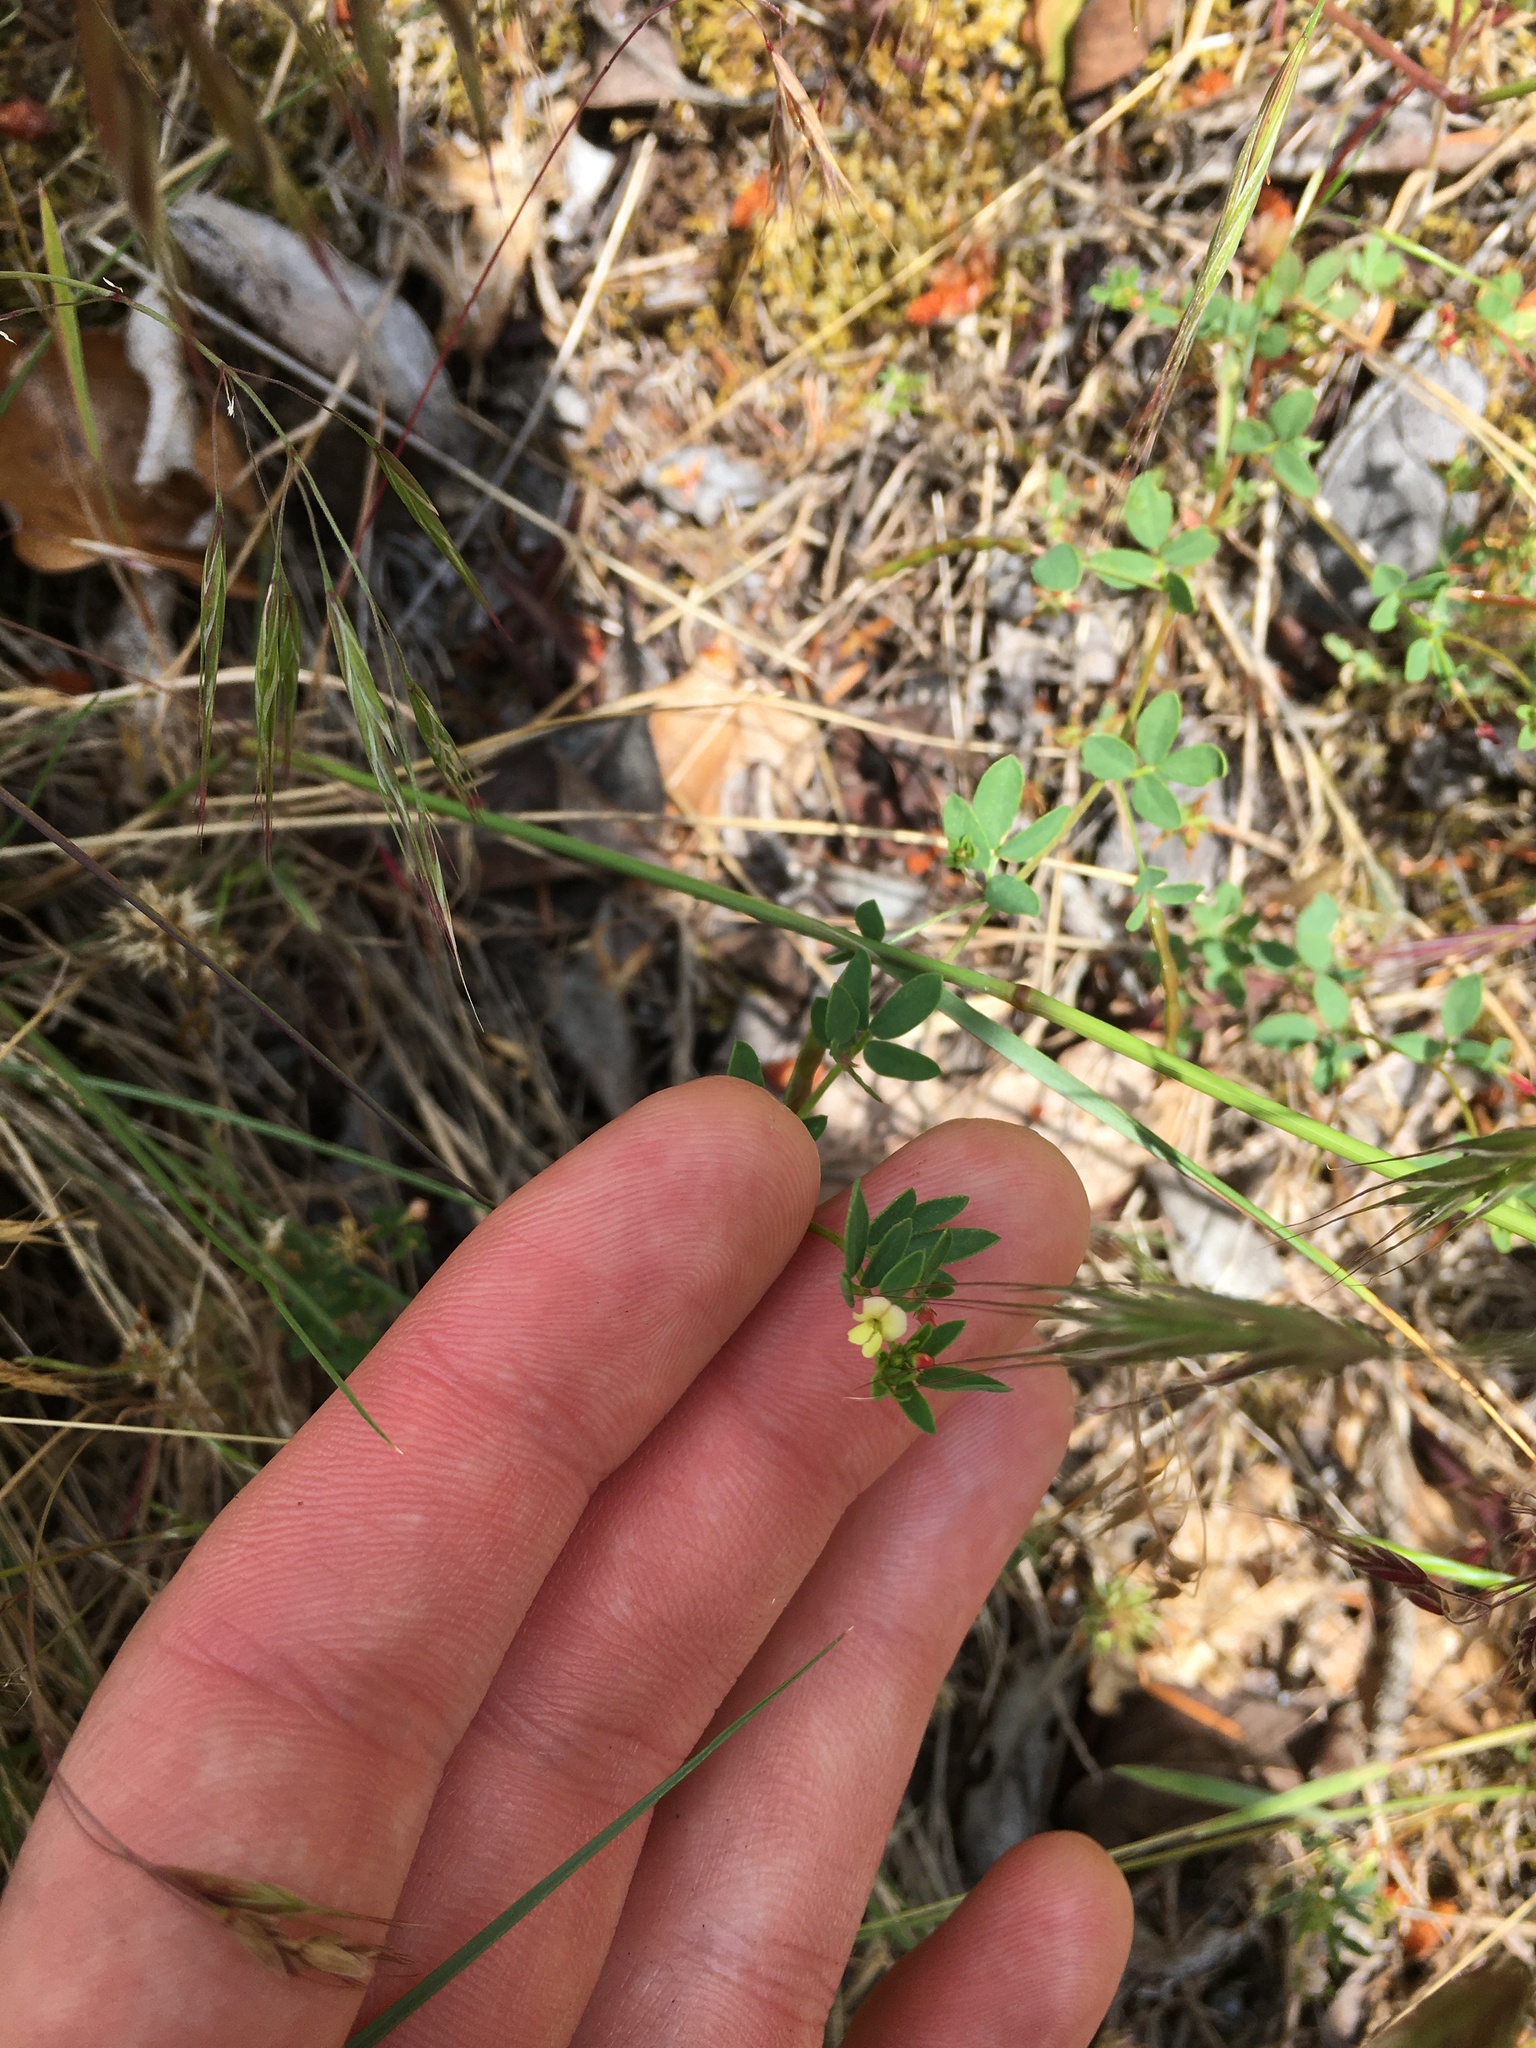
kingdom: Plantae
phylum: Tracheophyta
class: Magnoliopsida
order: Fabales
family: Fabaceae
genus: Acmispon
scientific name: Acmispon parviflorus
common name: Desert deer-vetch
